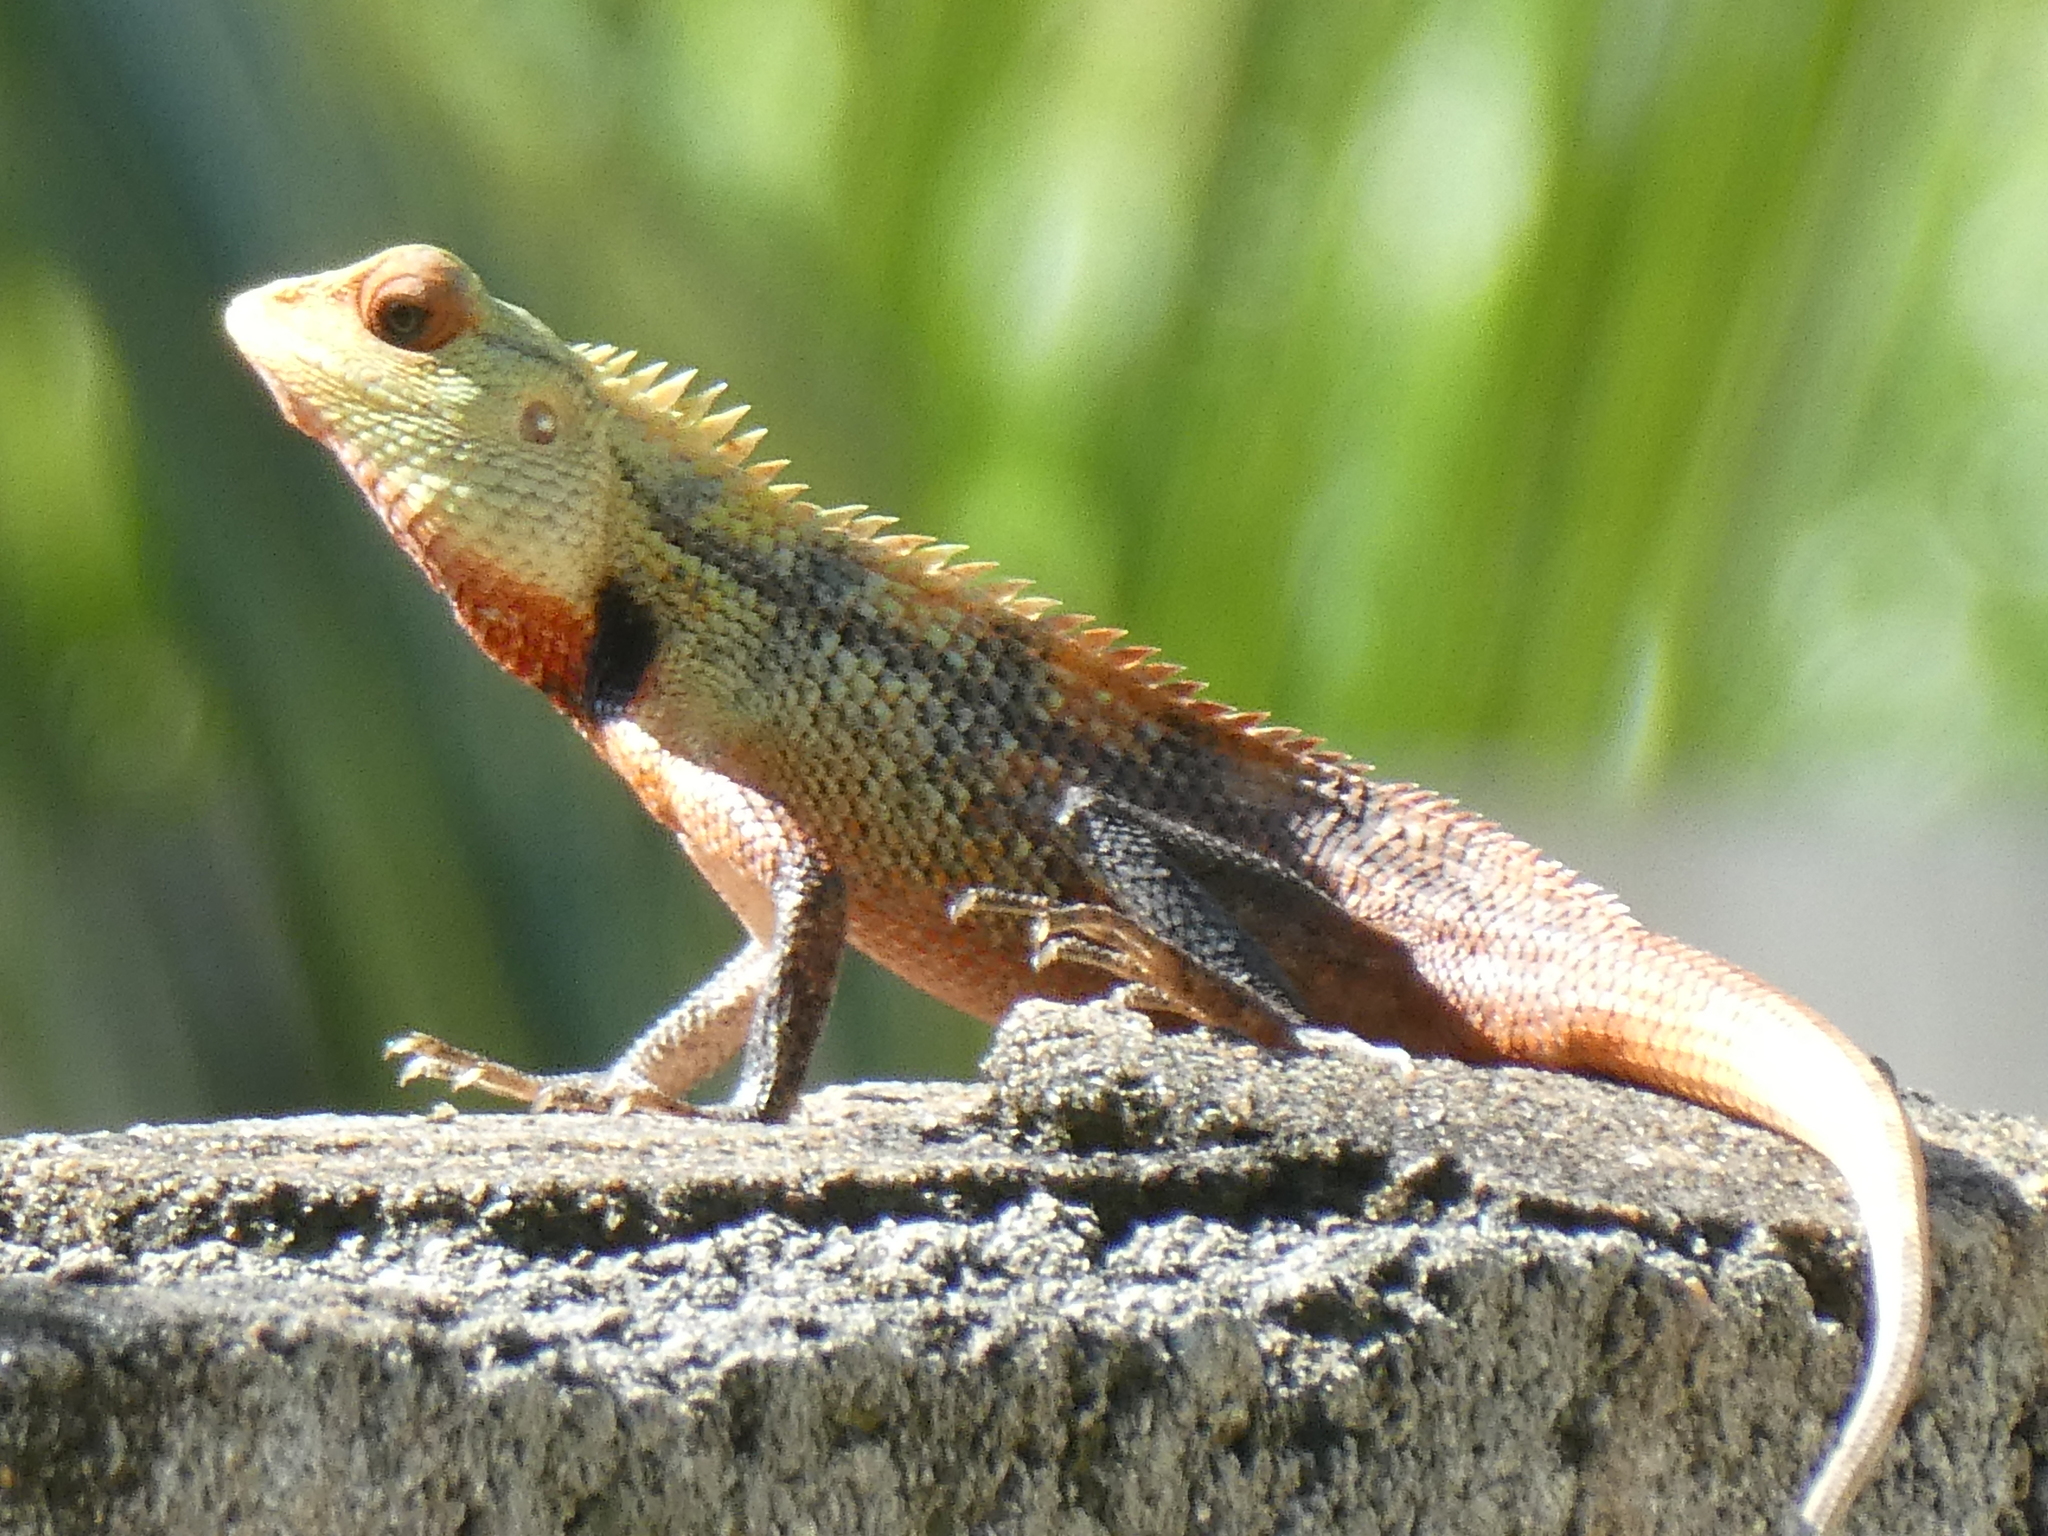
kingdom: Animalia
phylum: Chordata
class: Squamata
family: Agamidae
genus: Calotes
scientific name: Calotes versicolor
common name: Oriental garden lizard
